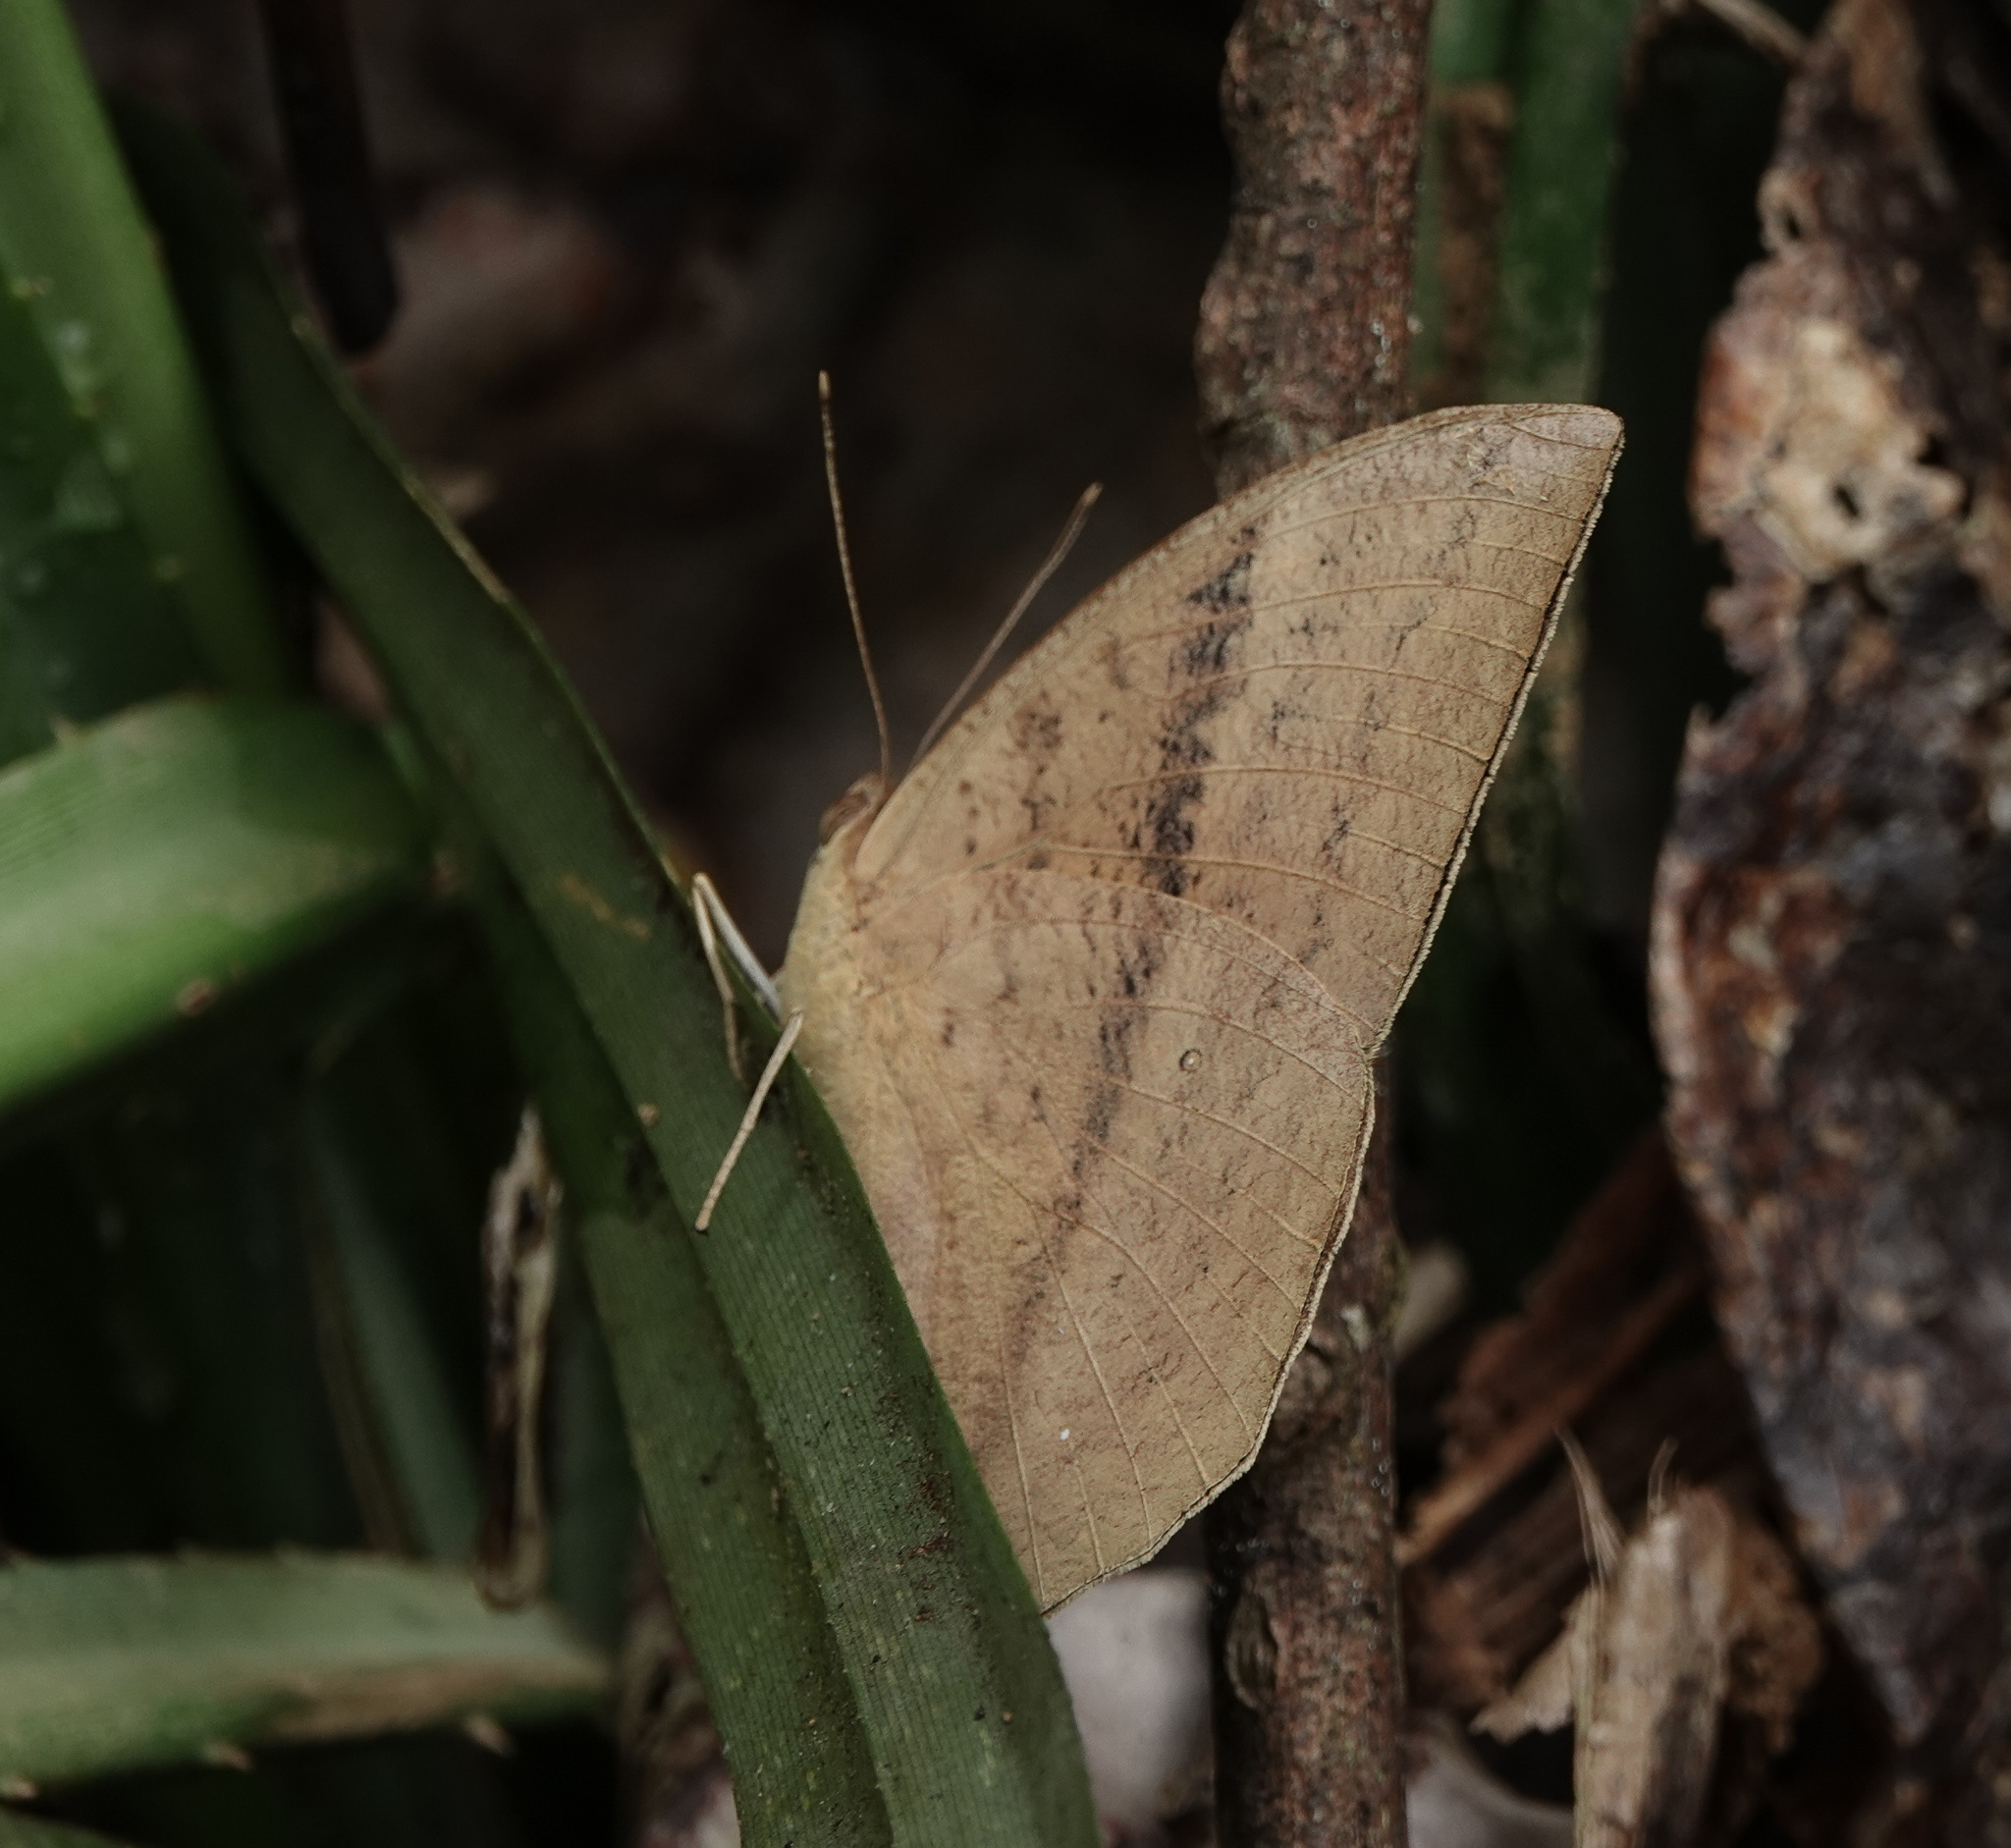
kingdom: Animalia
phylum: Arthropoda
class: Insecta
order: Lepidoptera
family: Nymphalidae
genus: Discophora
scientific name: Discophora sondaica
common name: Common duffer
